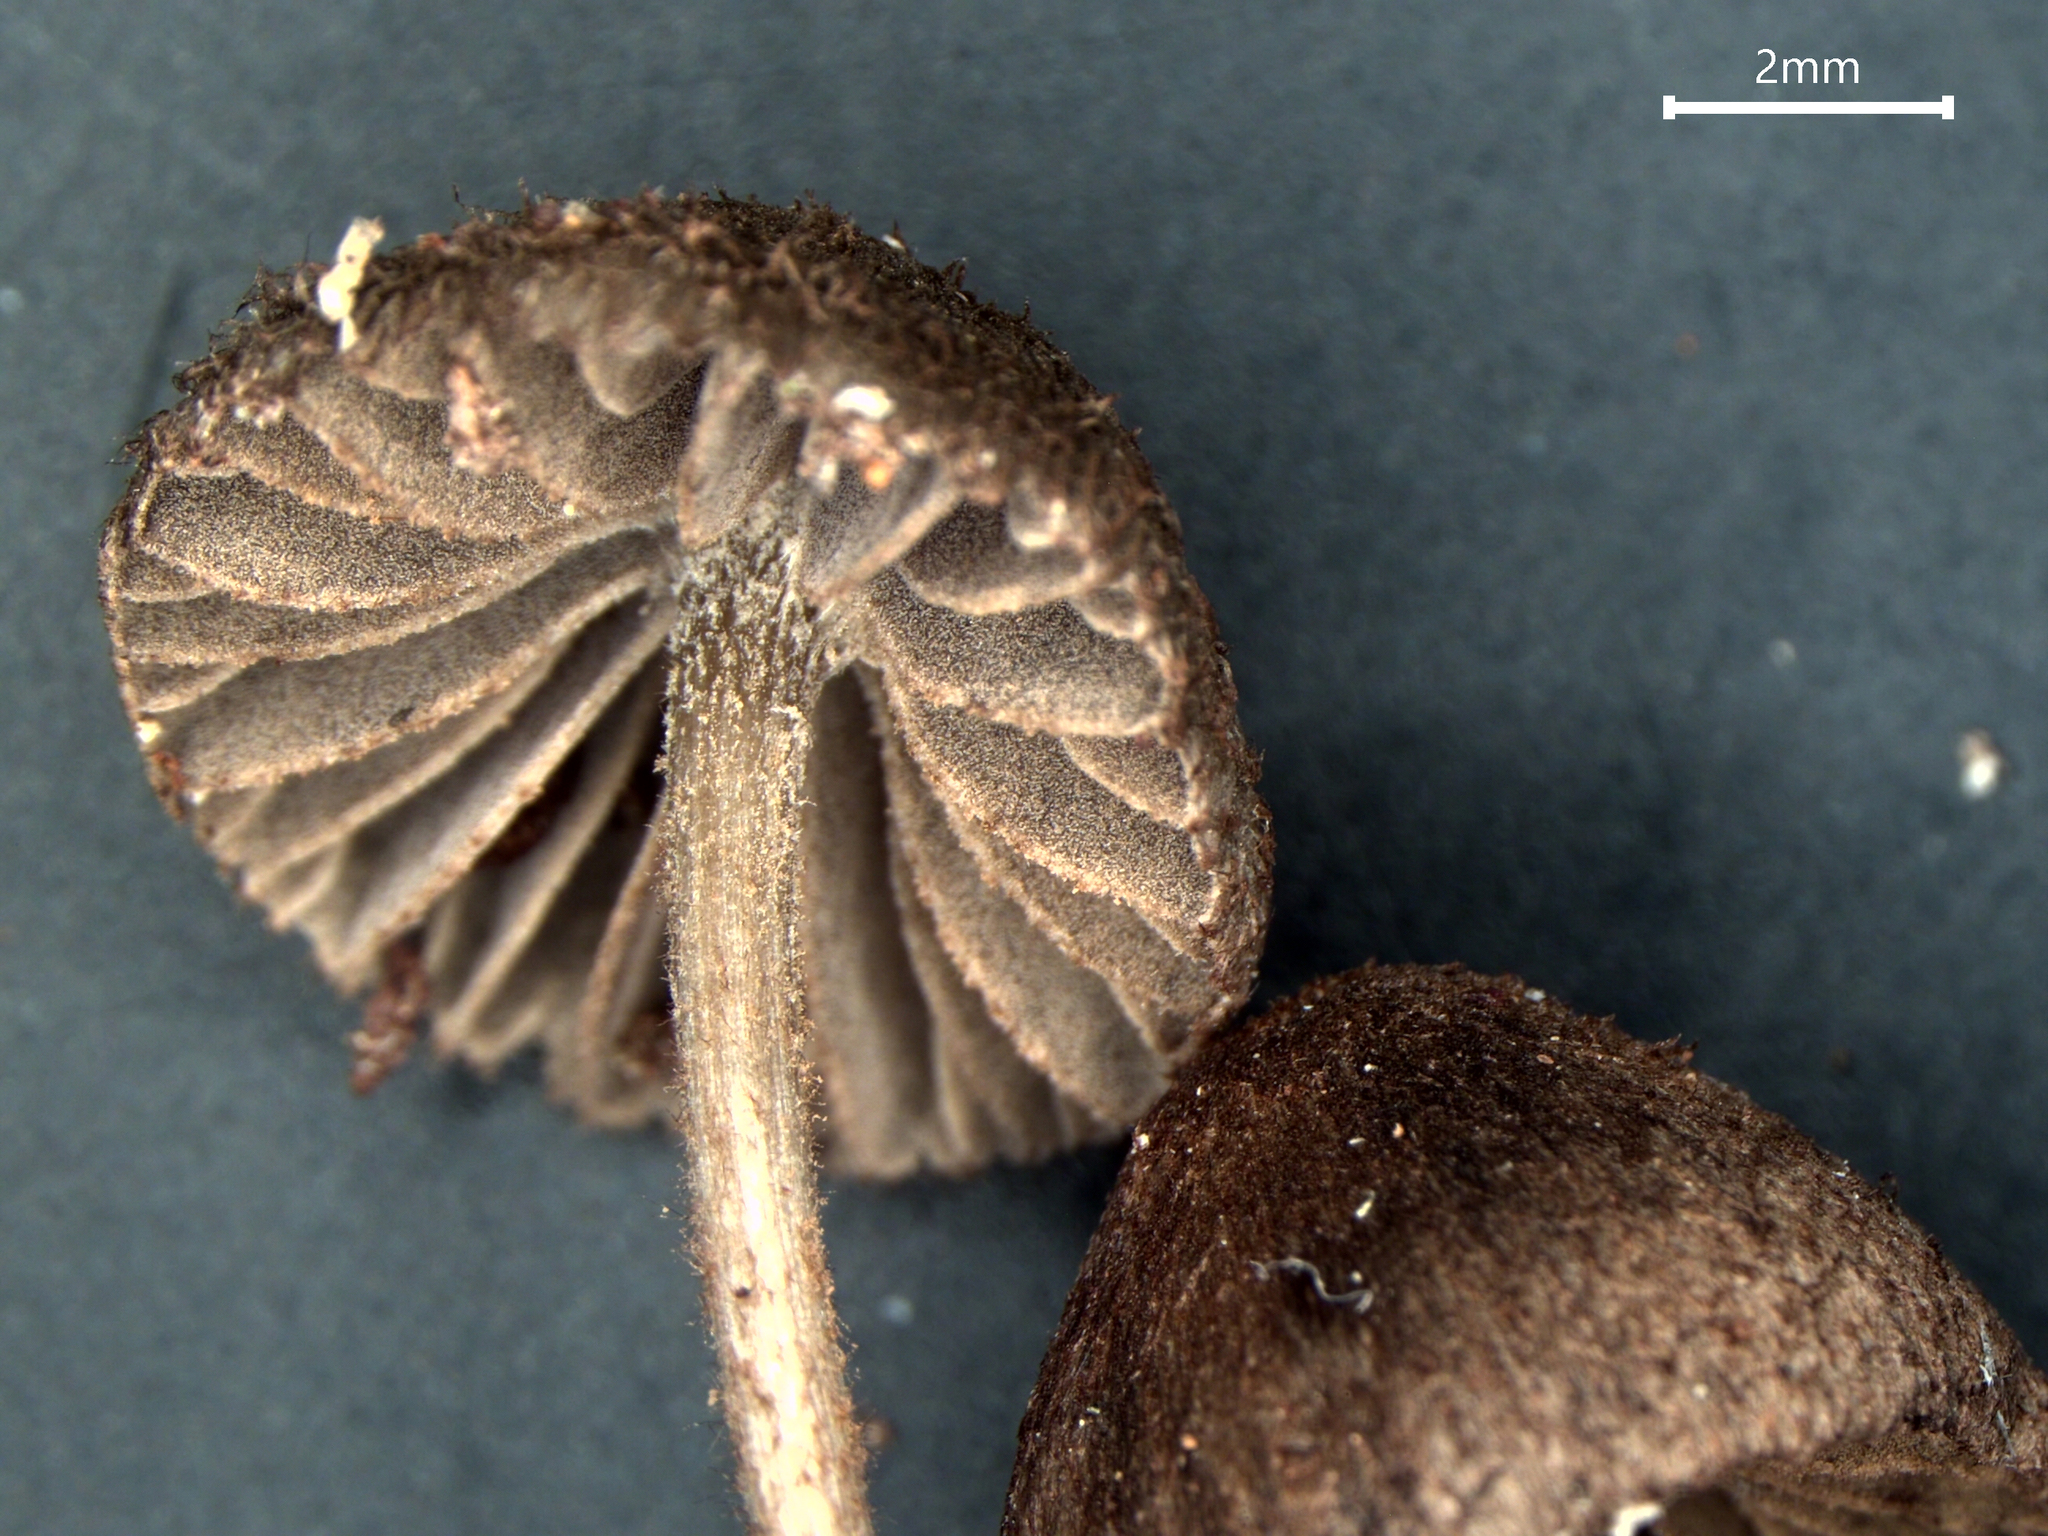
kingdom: Fungi
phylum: Basidiomycota
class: Agaricomycetes
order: Agaricales
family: Entolomataceae
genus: Entoloma
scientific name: Entoloma strigosissimum
